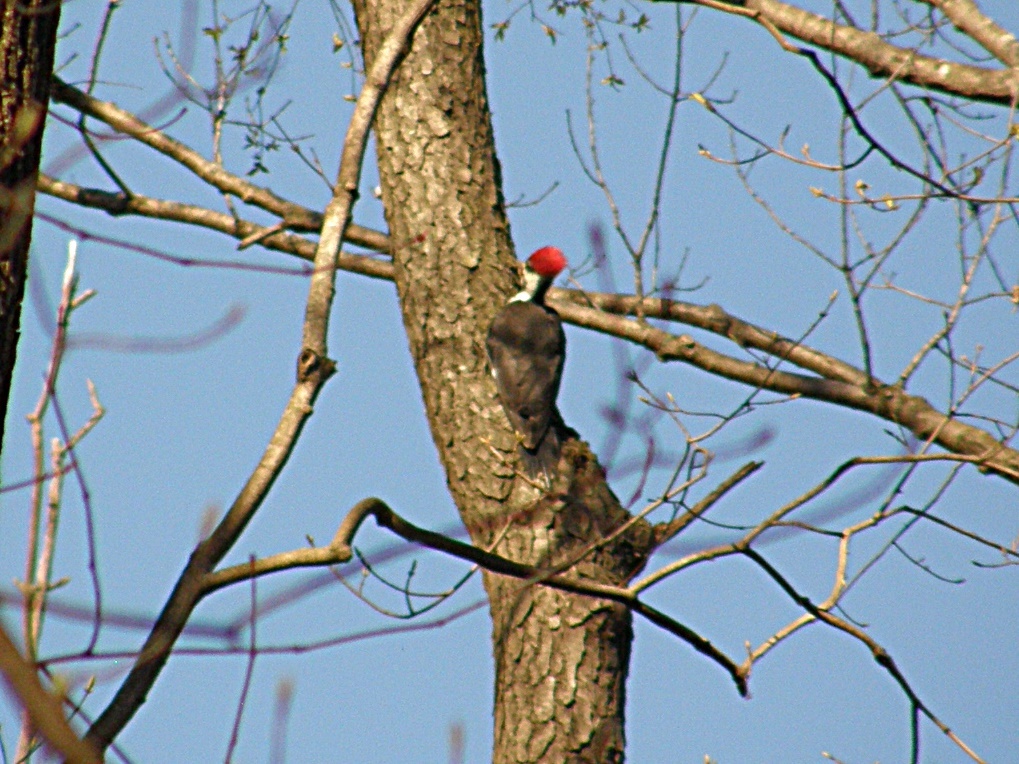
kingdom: Animalia
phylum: Chordata
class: Aves
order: Piciformes
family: Picidae
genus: Dryocopus
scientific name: Dryocopus pileatus
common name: Pileated woodpecker
